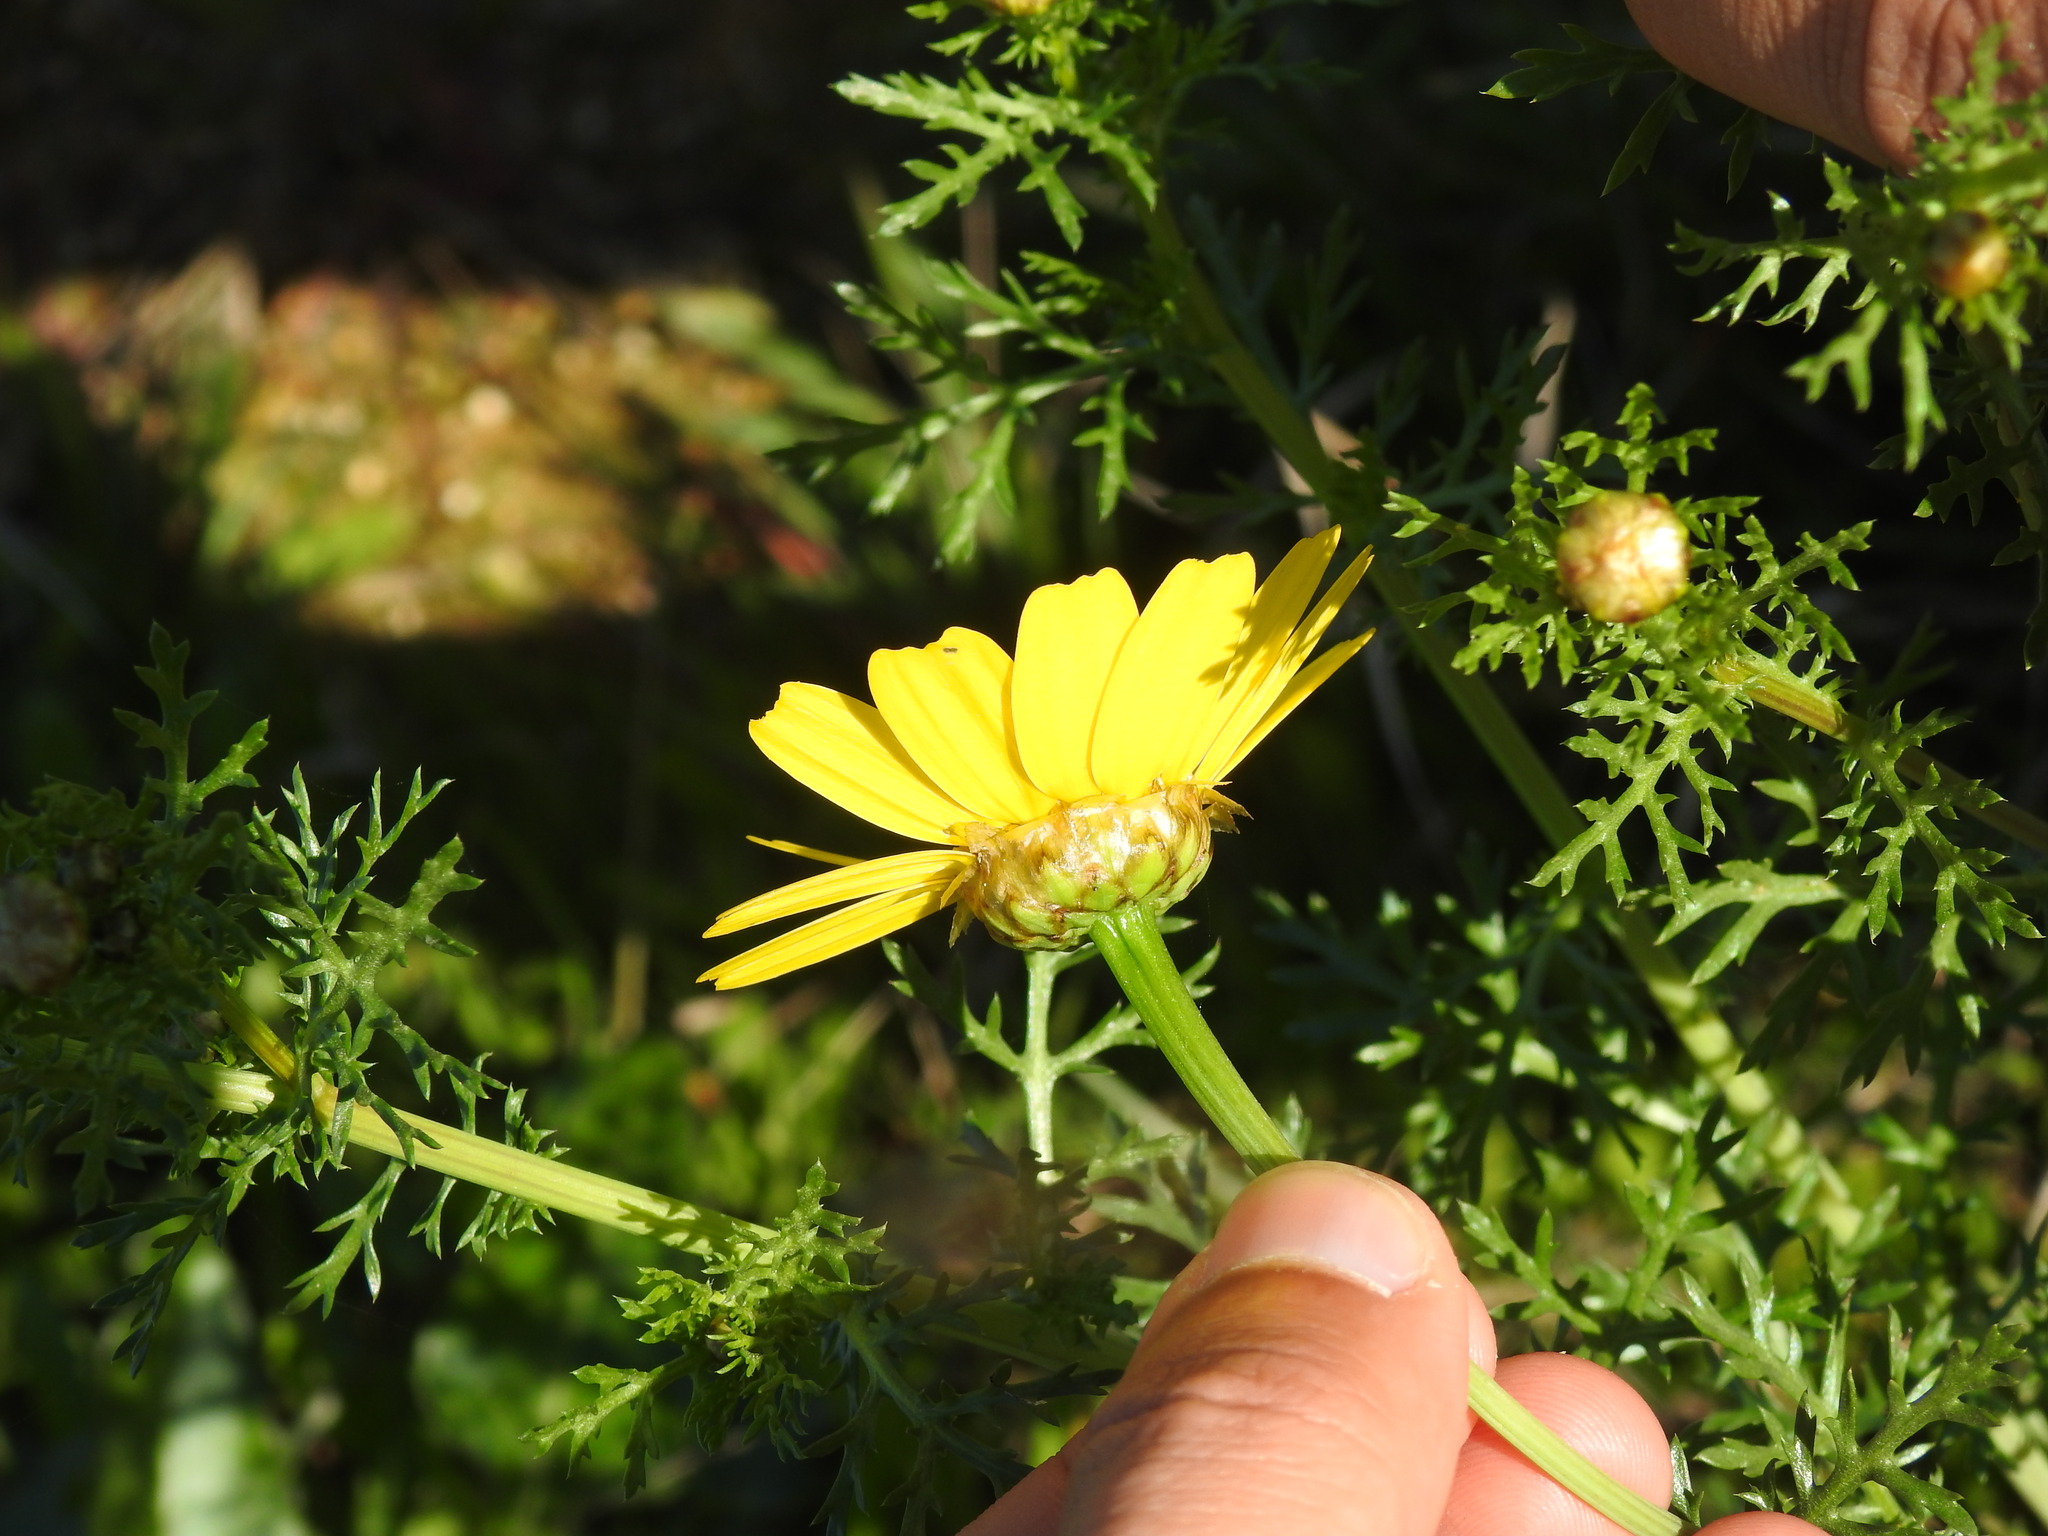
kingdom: Plantae
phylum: Tracheophyta
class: Magnoliopsida
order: Asterales
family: Asteraceae
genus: Glebionis
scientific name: Glebionis coronaria
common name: Crowndaisy
